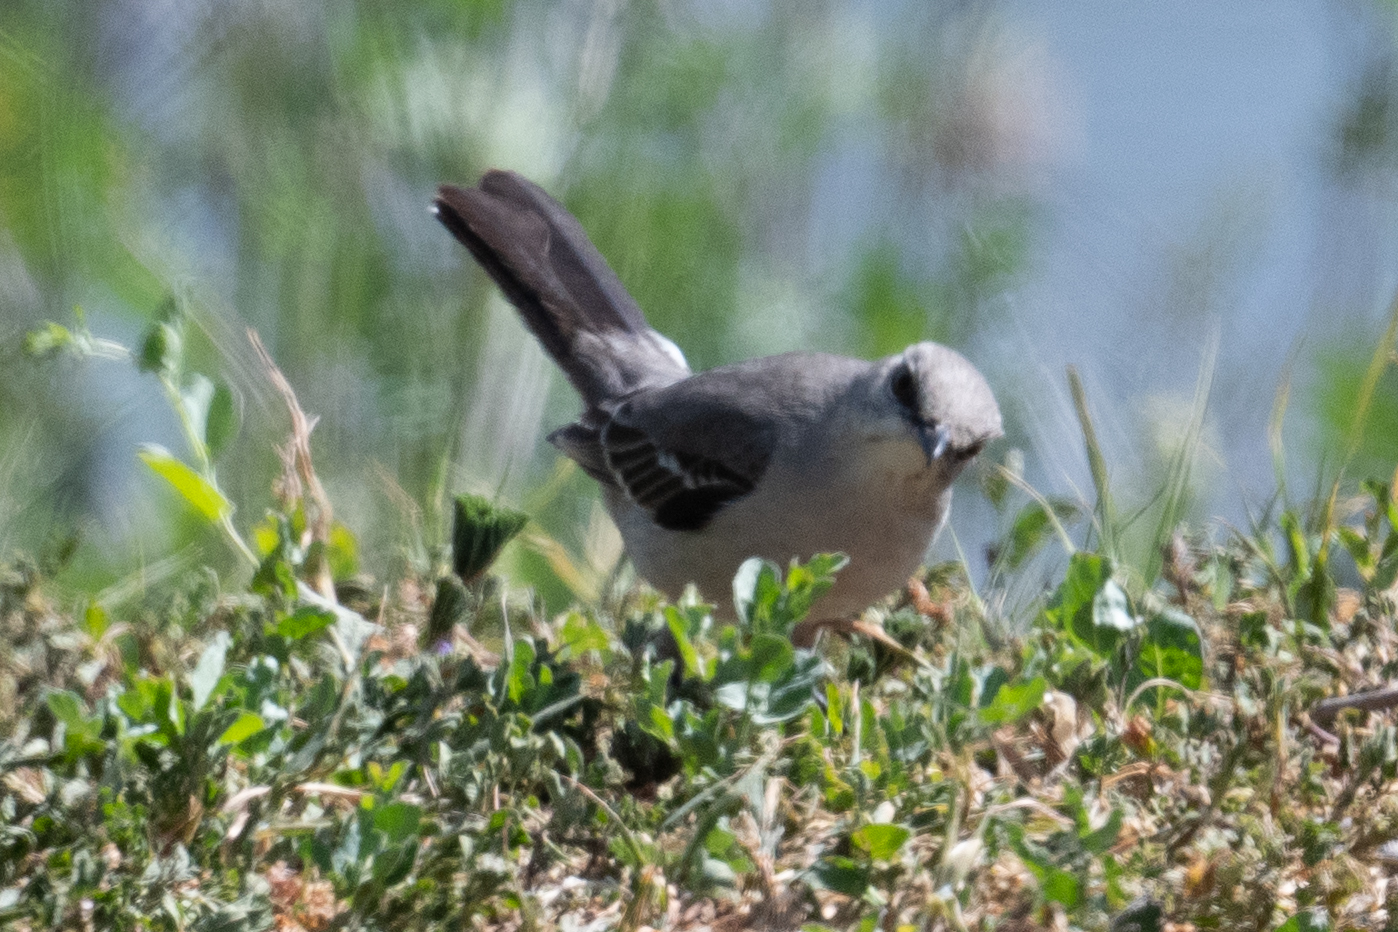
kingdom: Animalia
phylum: Chordata
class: Aves
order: Passeriformes
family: Mimidae
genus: Mimus
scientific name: Mimus polyglottos
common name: Northern mockingbird
